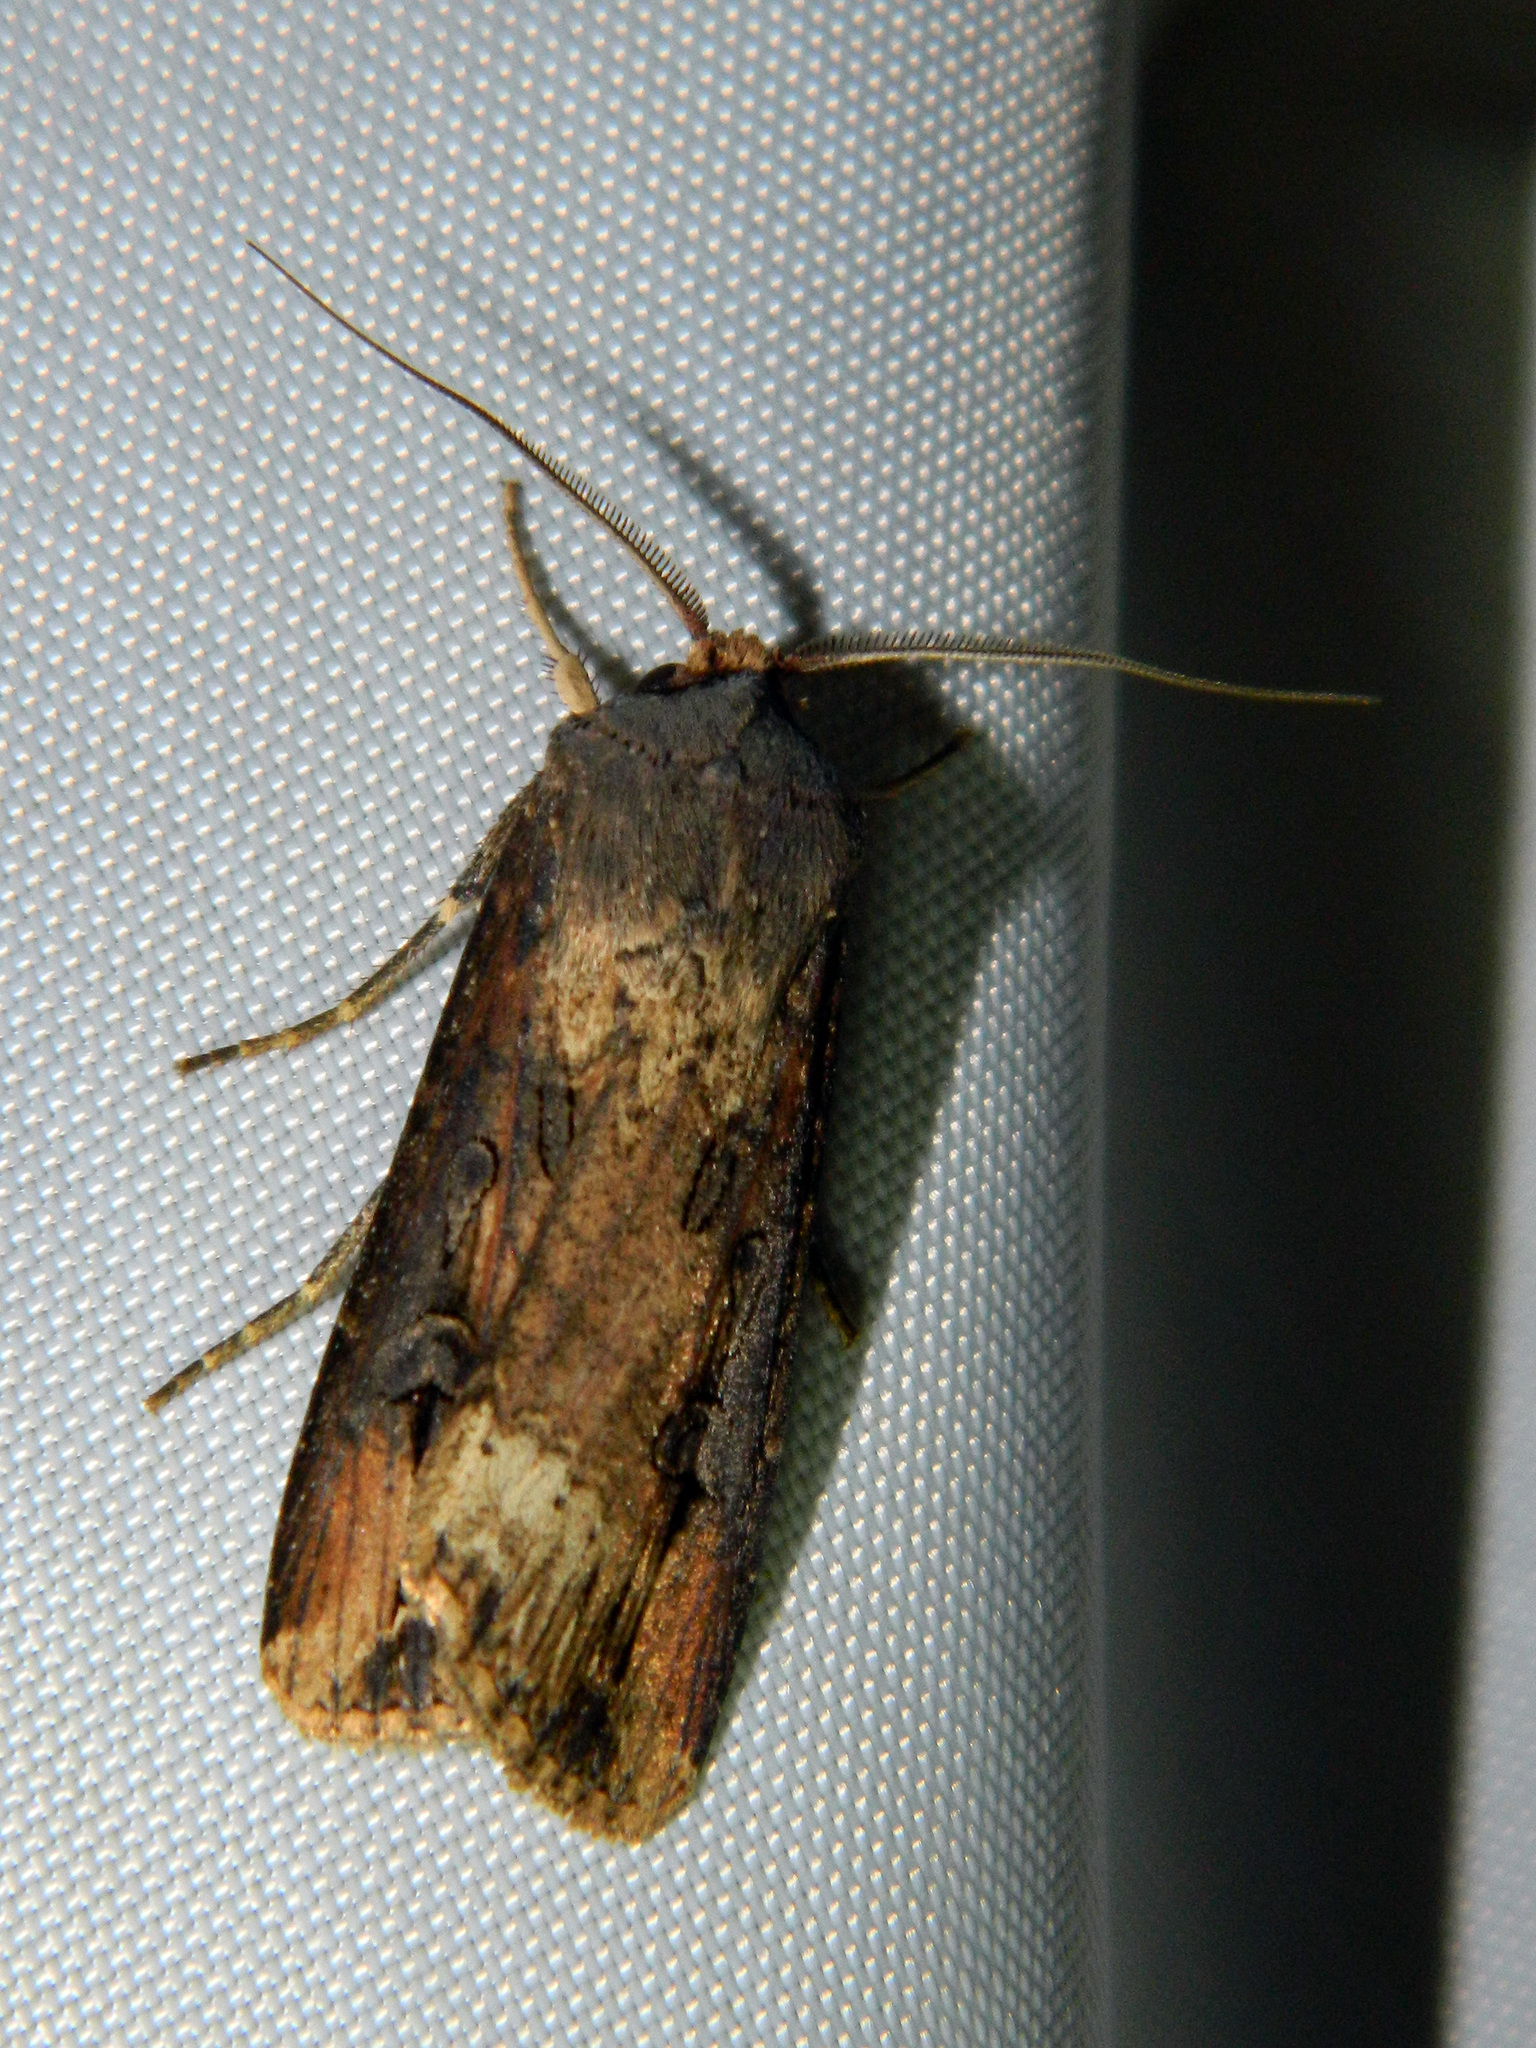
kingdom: Animalia
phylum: Arthropoda
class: Insecta
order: Lepidoptera
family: Noctuidae
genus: Agrotis
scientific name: Agrotis ipsilon
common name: Dark sword-grass
